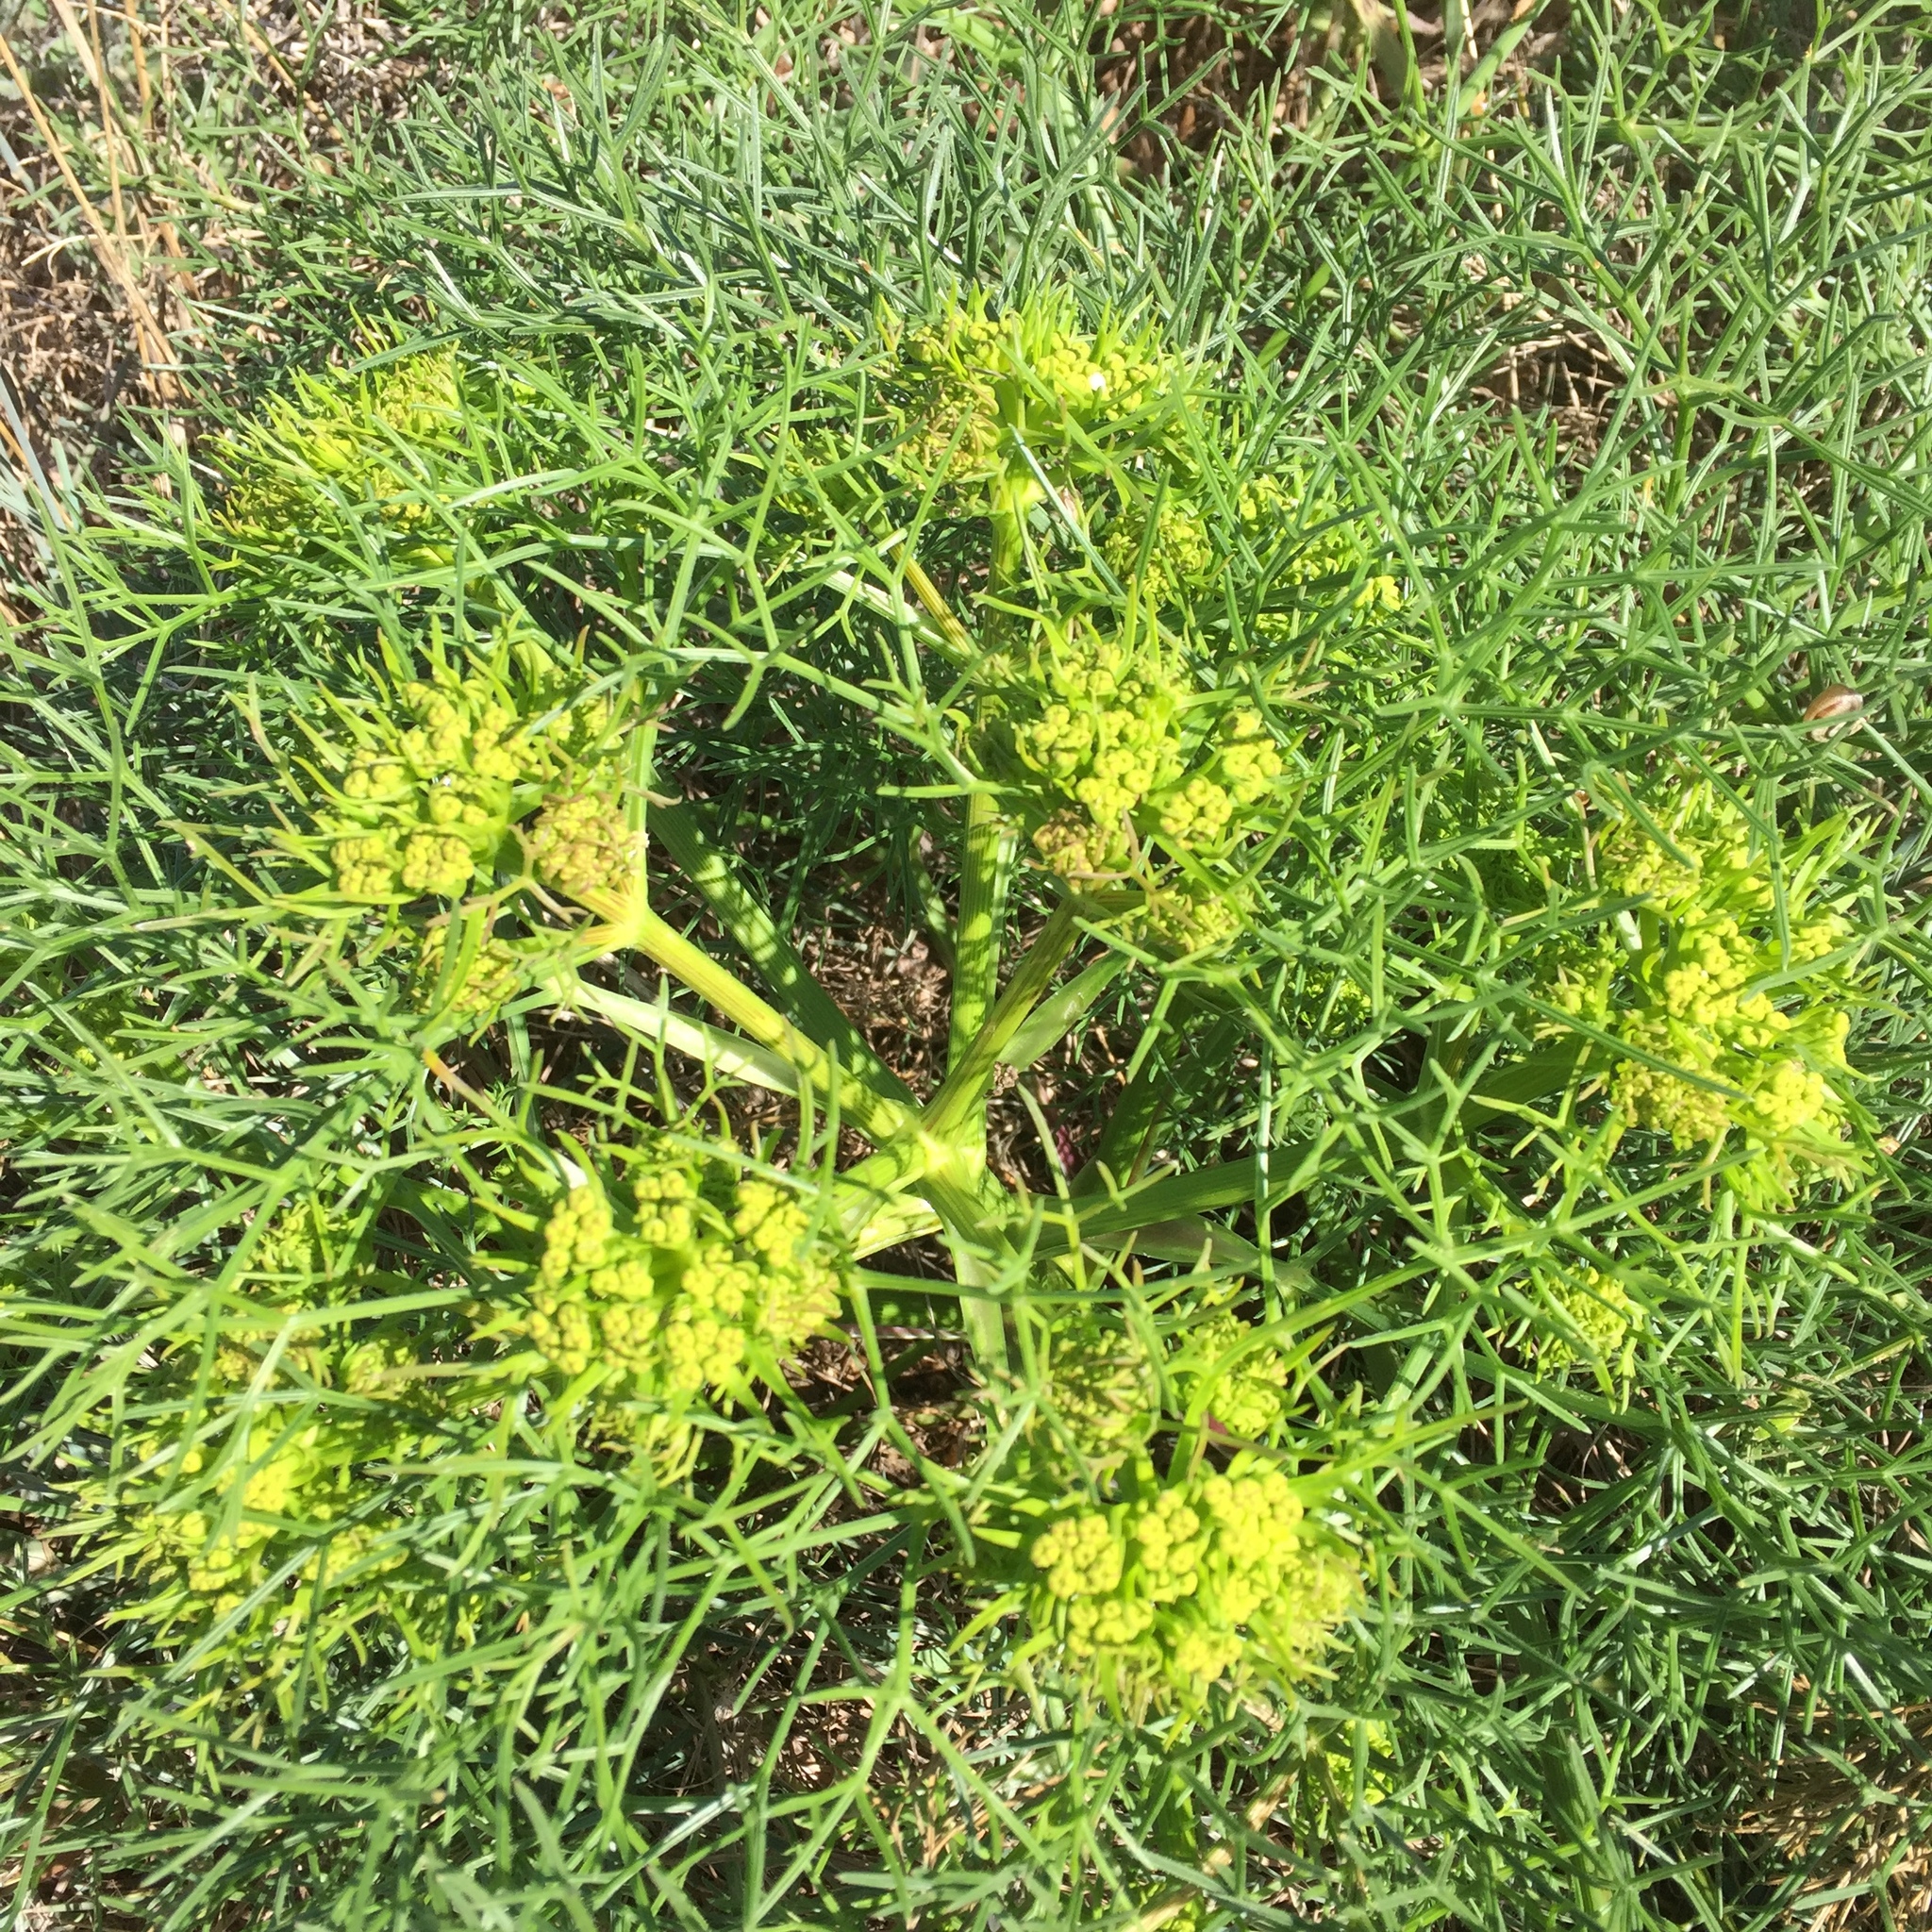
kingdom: Plantae
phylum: Tracheophyta
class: Magnoliopsida
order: Apiales
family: Apiaceae
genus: Foeniculum
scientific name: Foeniculum vulgare
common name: Fennel
